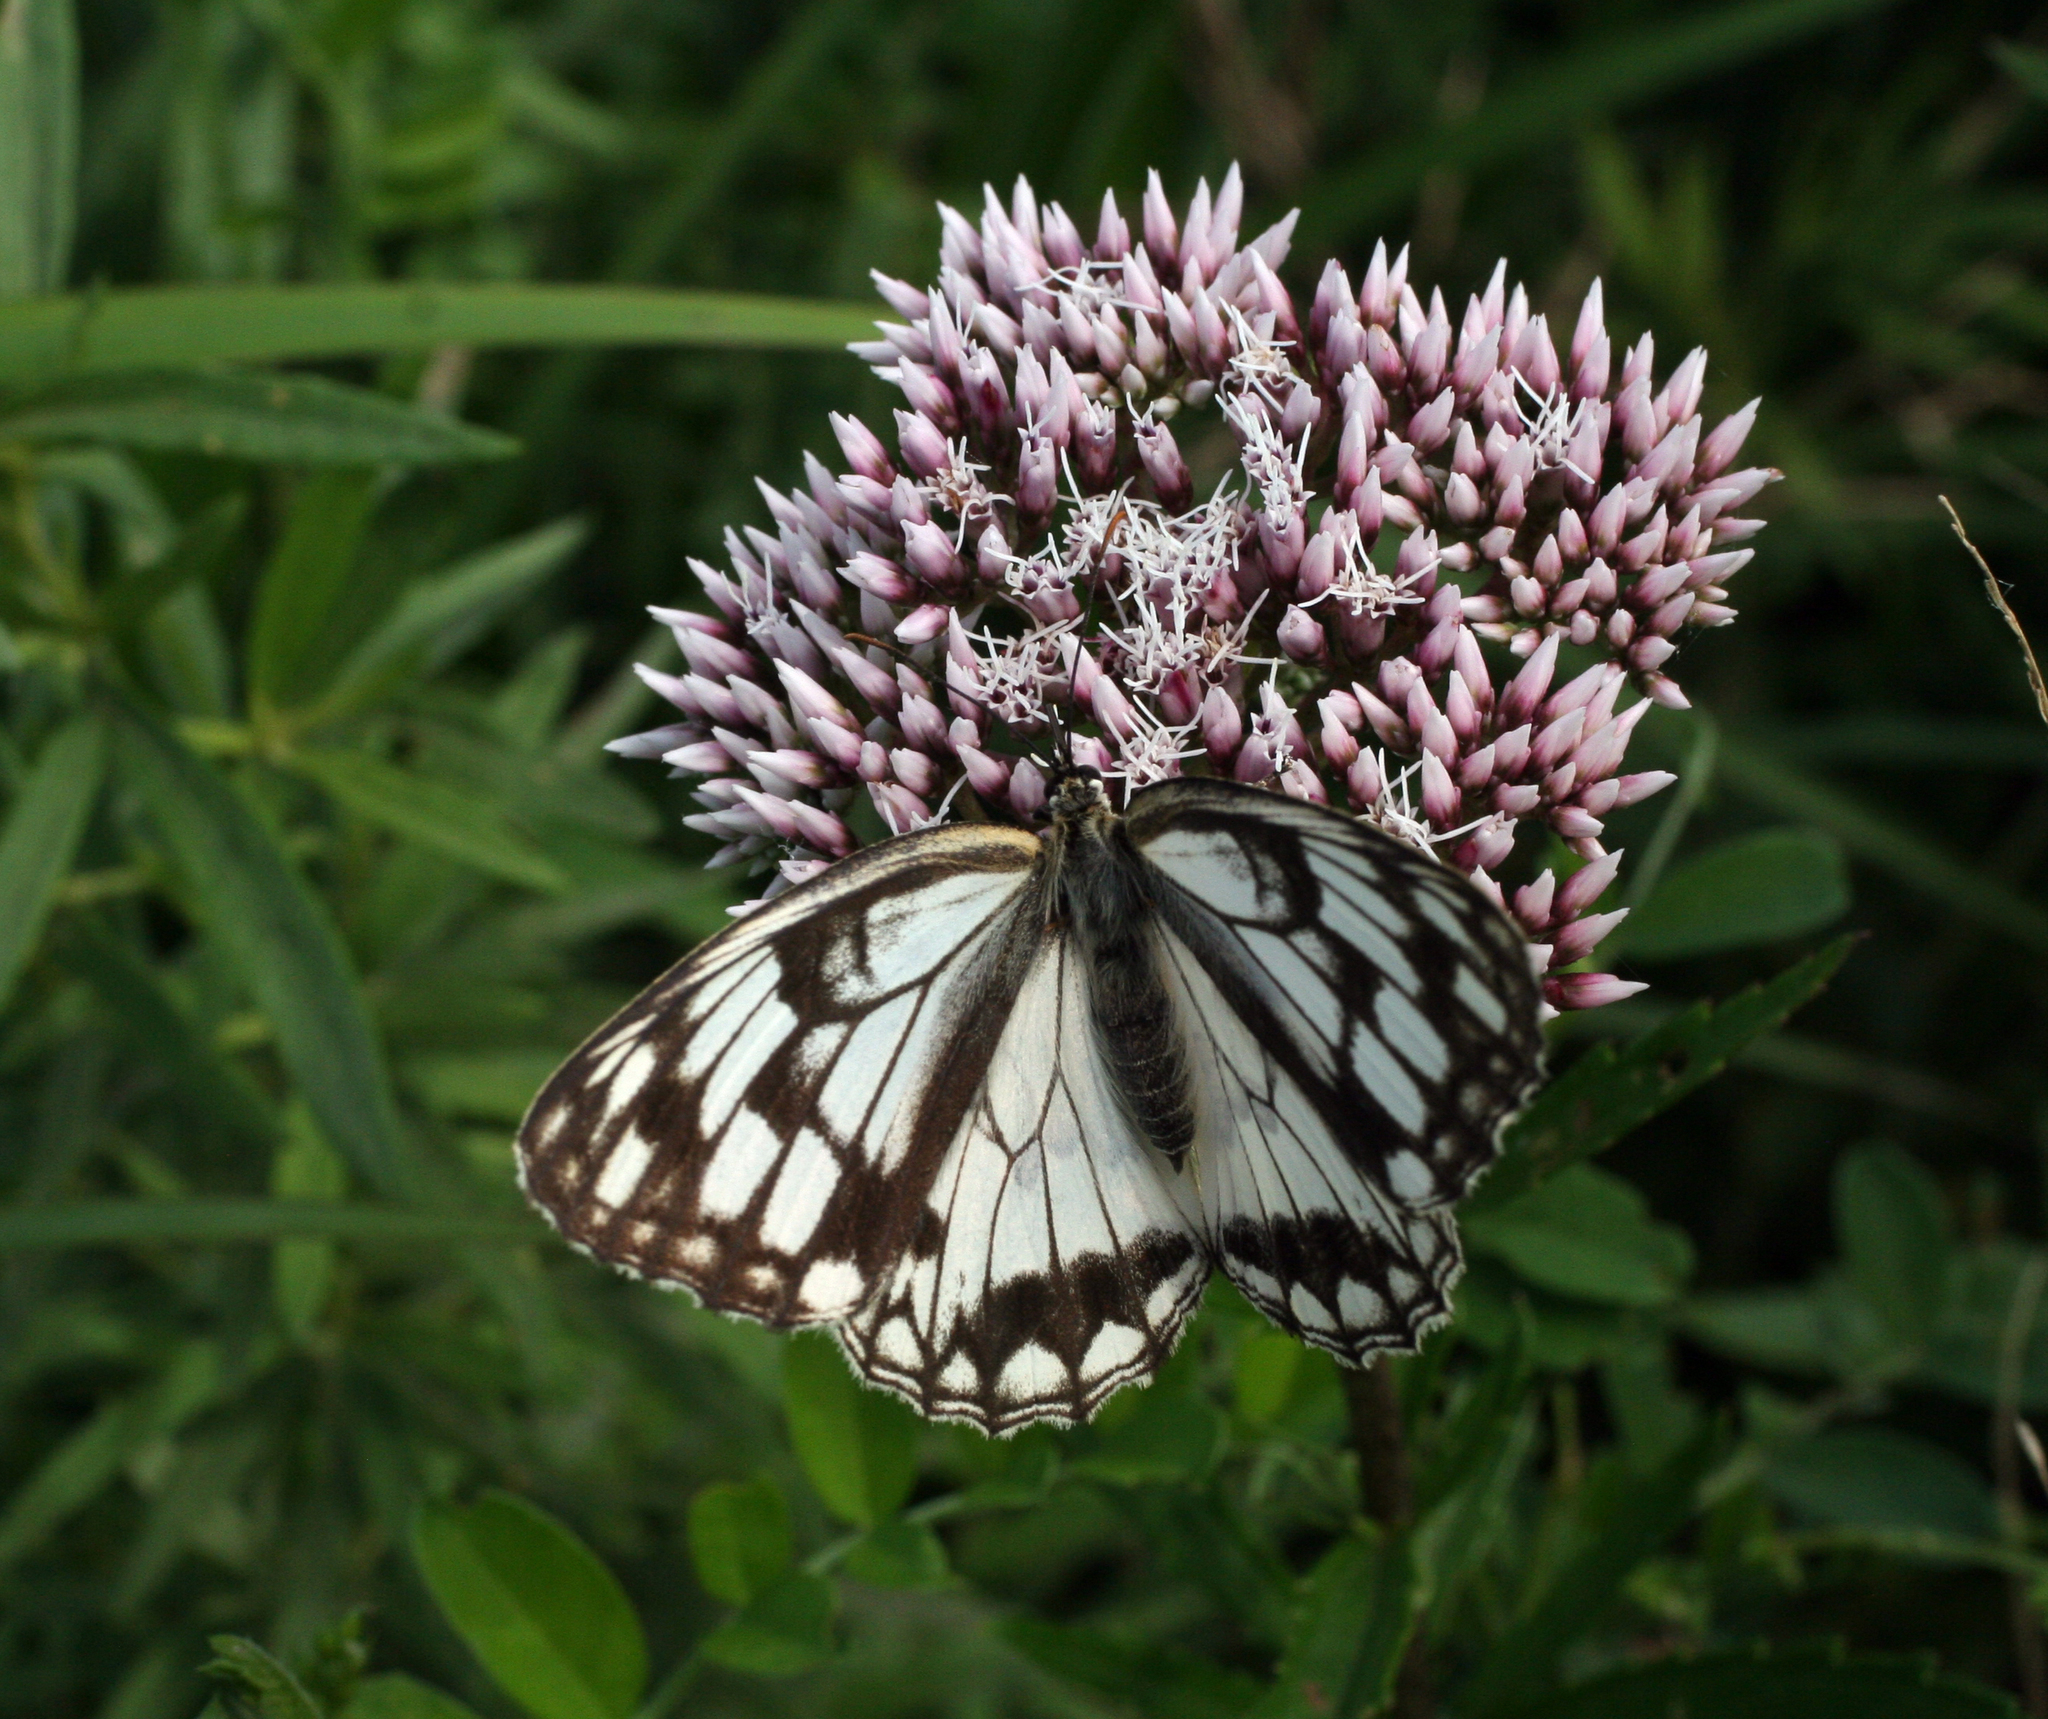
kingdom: Plantae
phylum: Tracheophyta
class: Magnoliopsida
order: Asterales
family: Asteraceae
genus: Eupatorium
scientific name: Eupatorium lindleyanum
